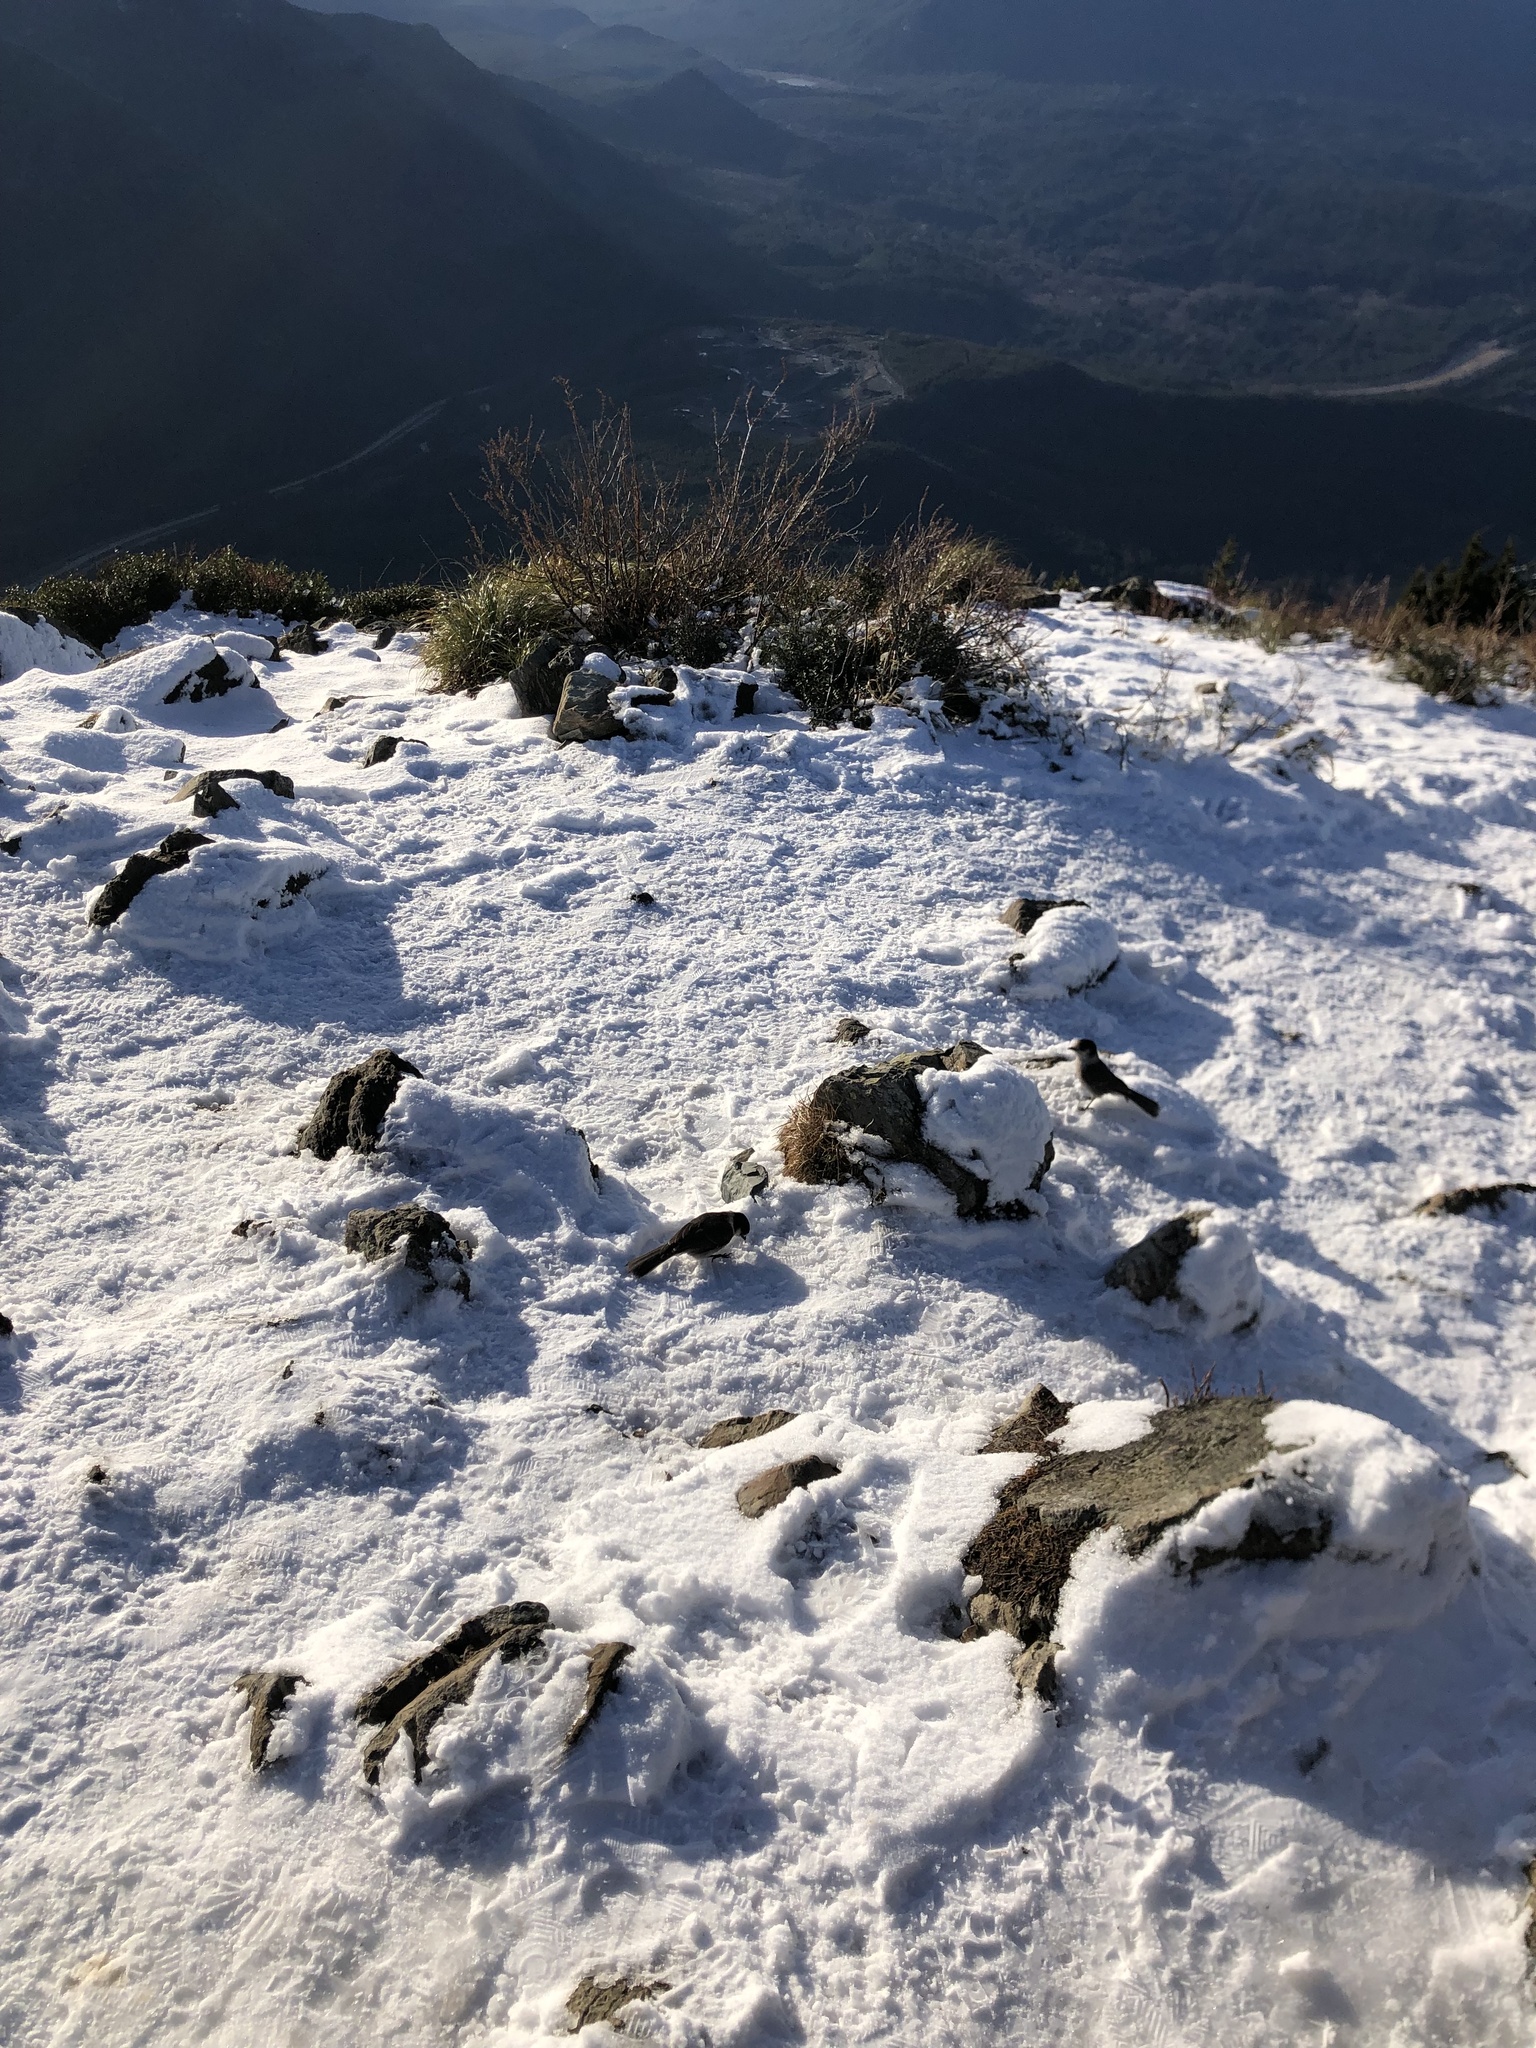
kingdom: Animalia
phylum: Chordata
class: Aves
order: Passeriformes
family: Corvidae
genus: Perisoreus
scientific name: Perisoreus canadensis
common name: Gray jay
